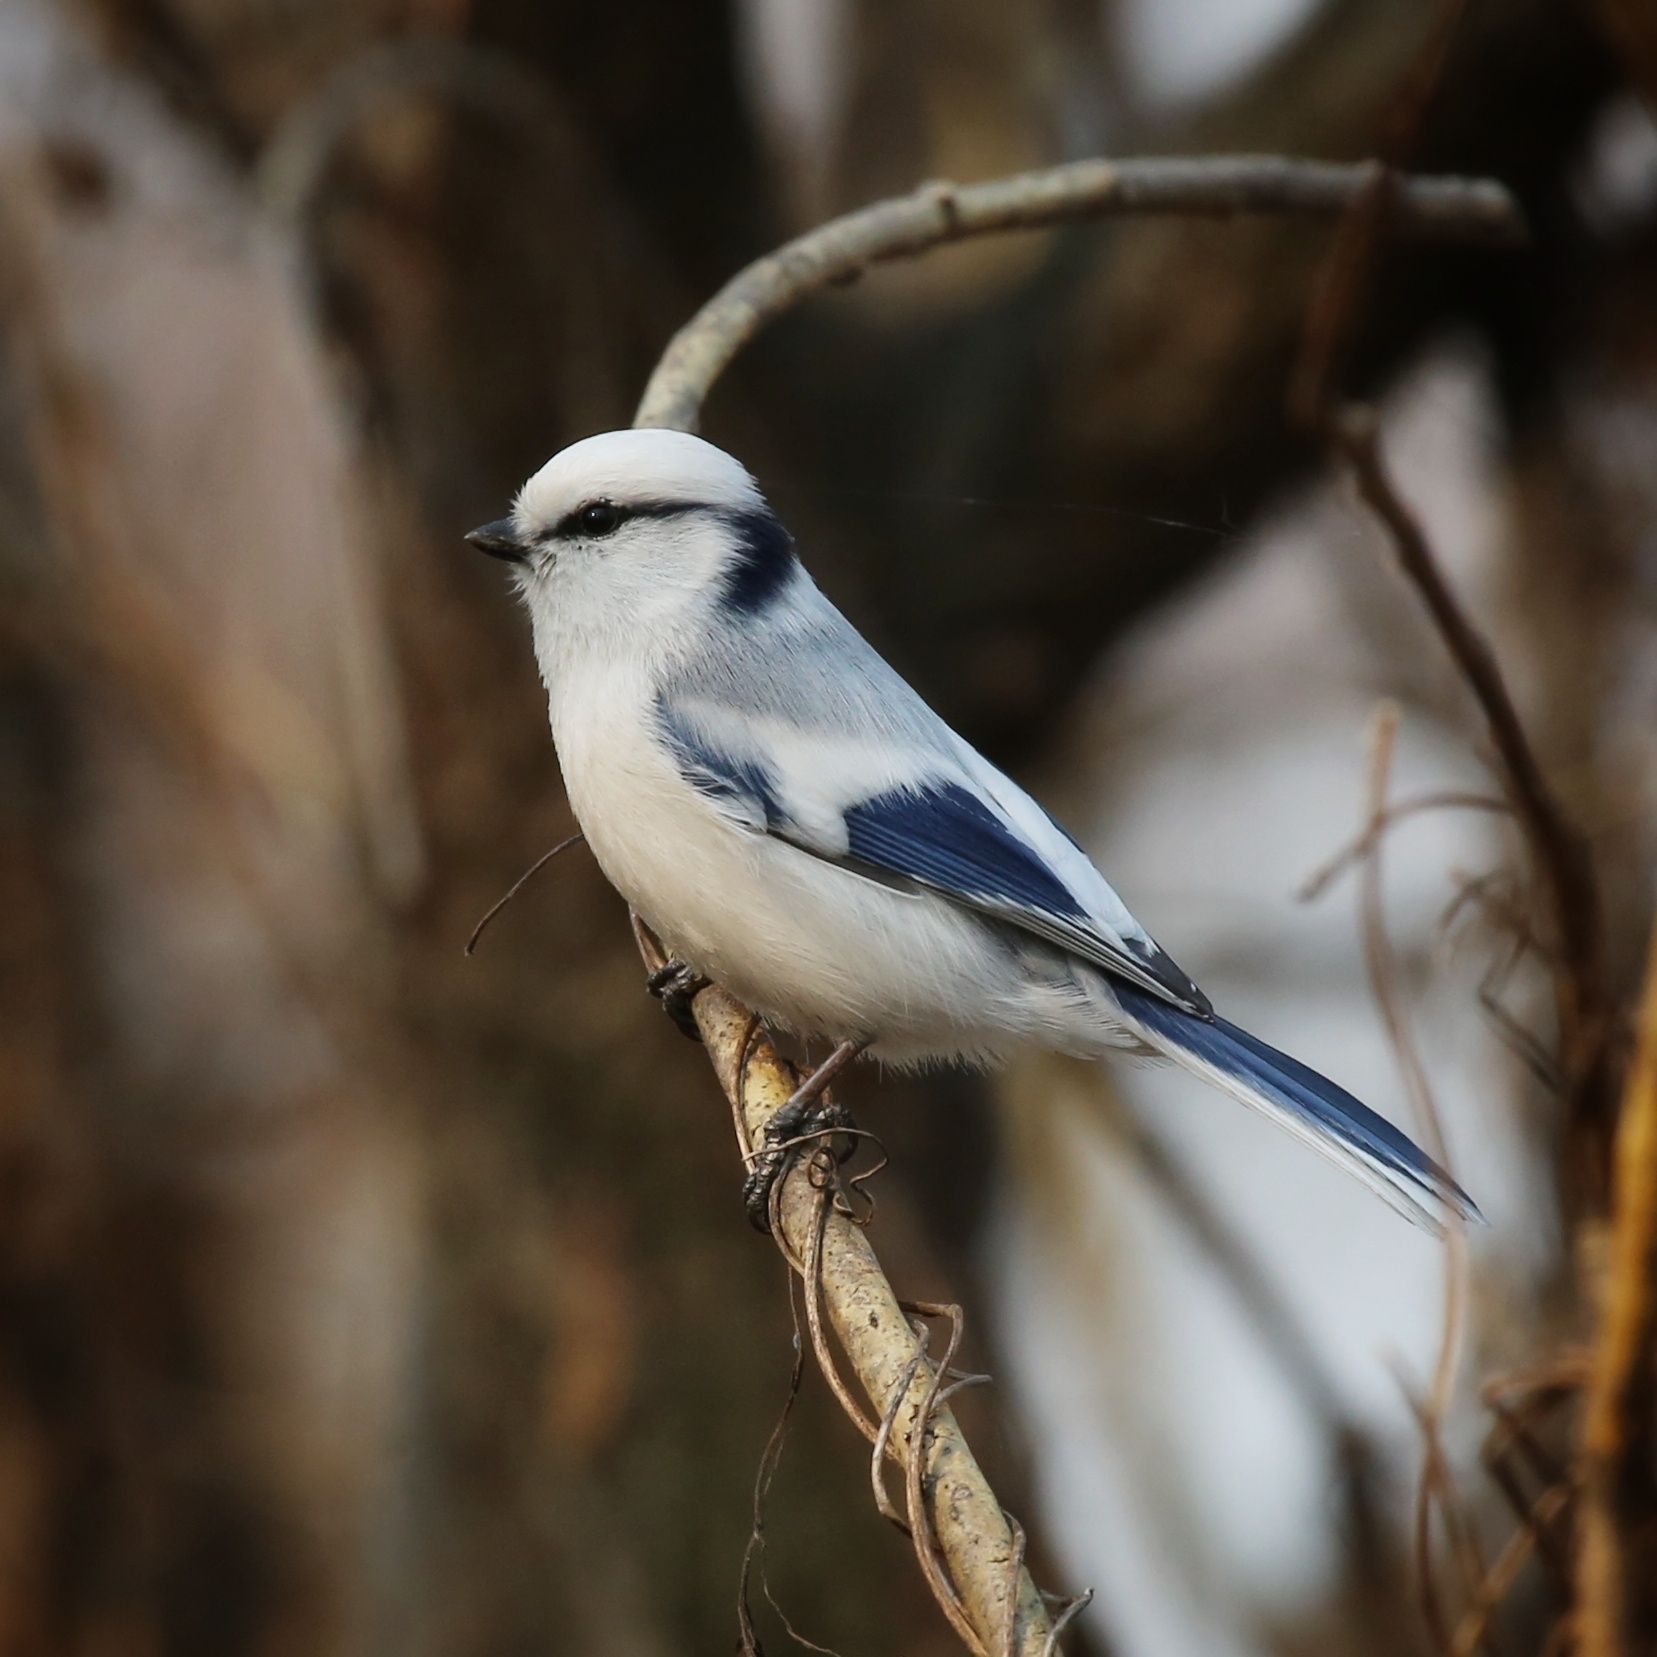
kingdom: Animalia
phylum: Chordata
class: Aves
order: Passeriformes
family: Paridae
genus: Cyanistes
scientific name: Cyanistes cyanus
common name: Azure tit
